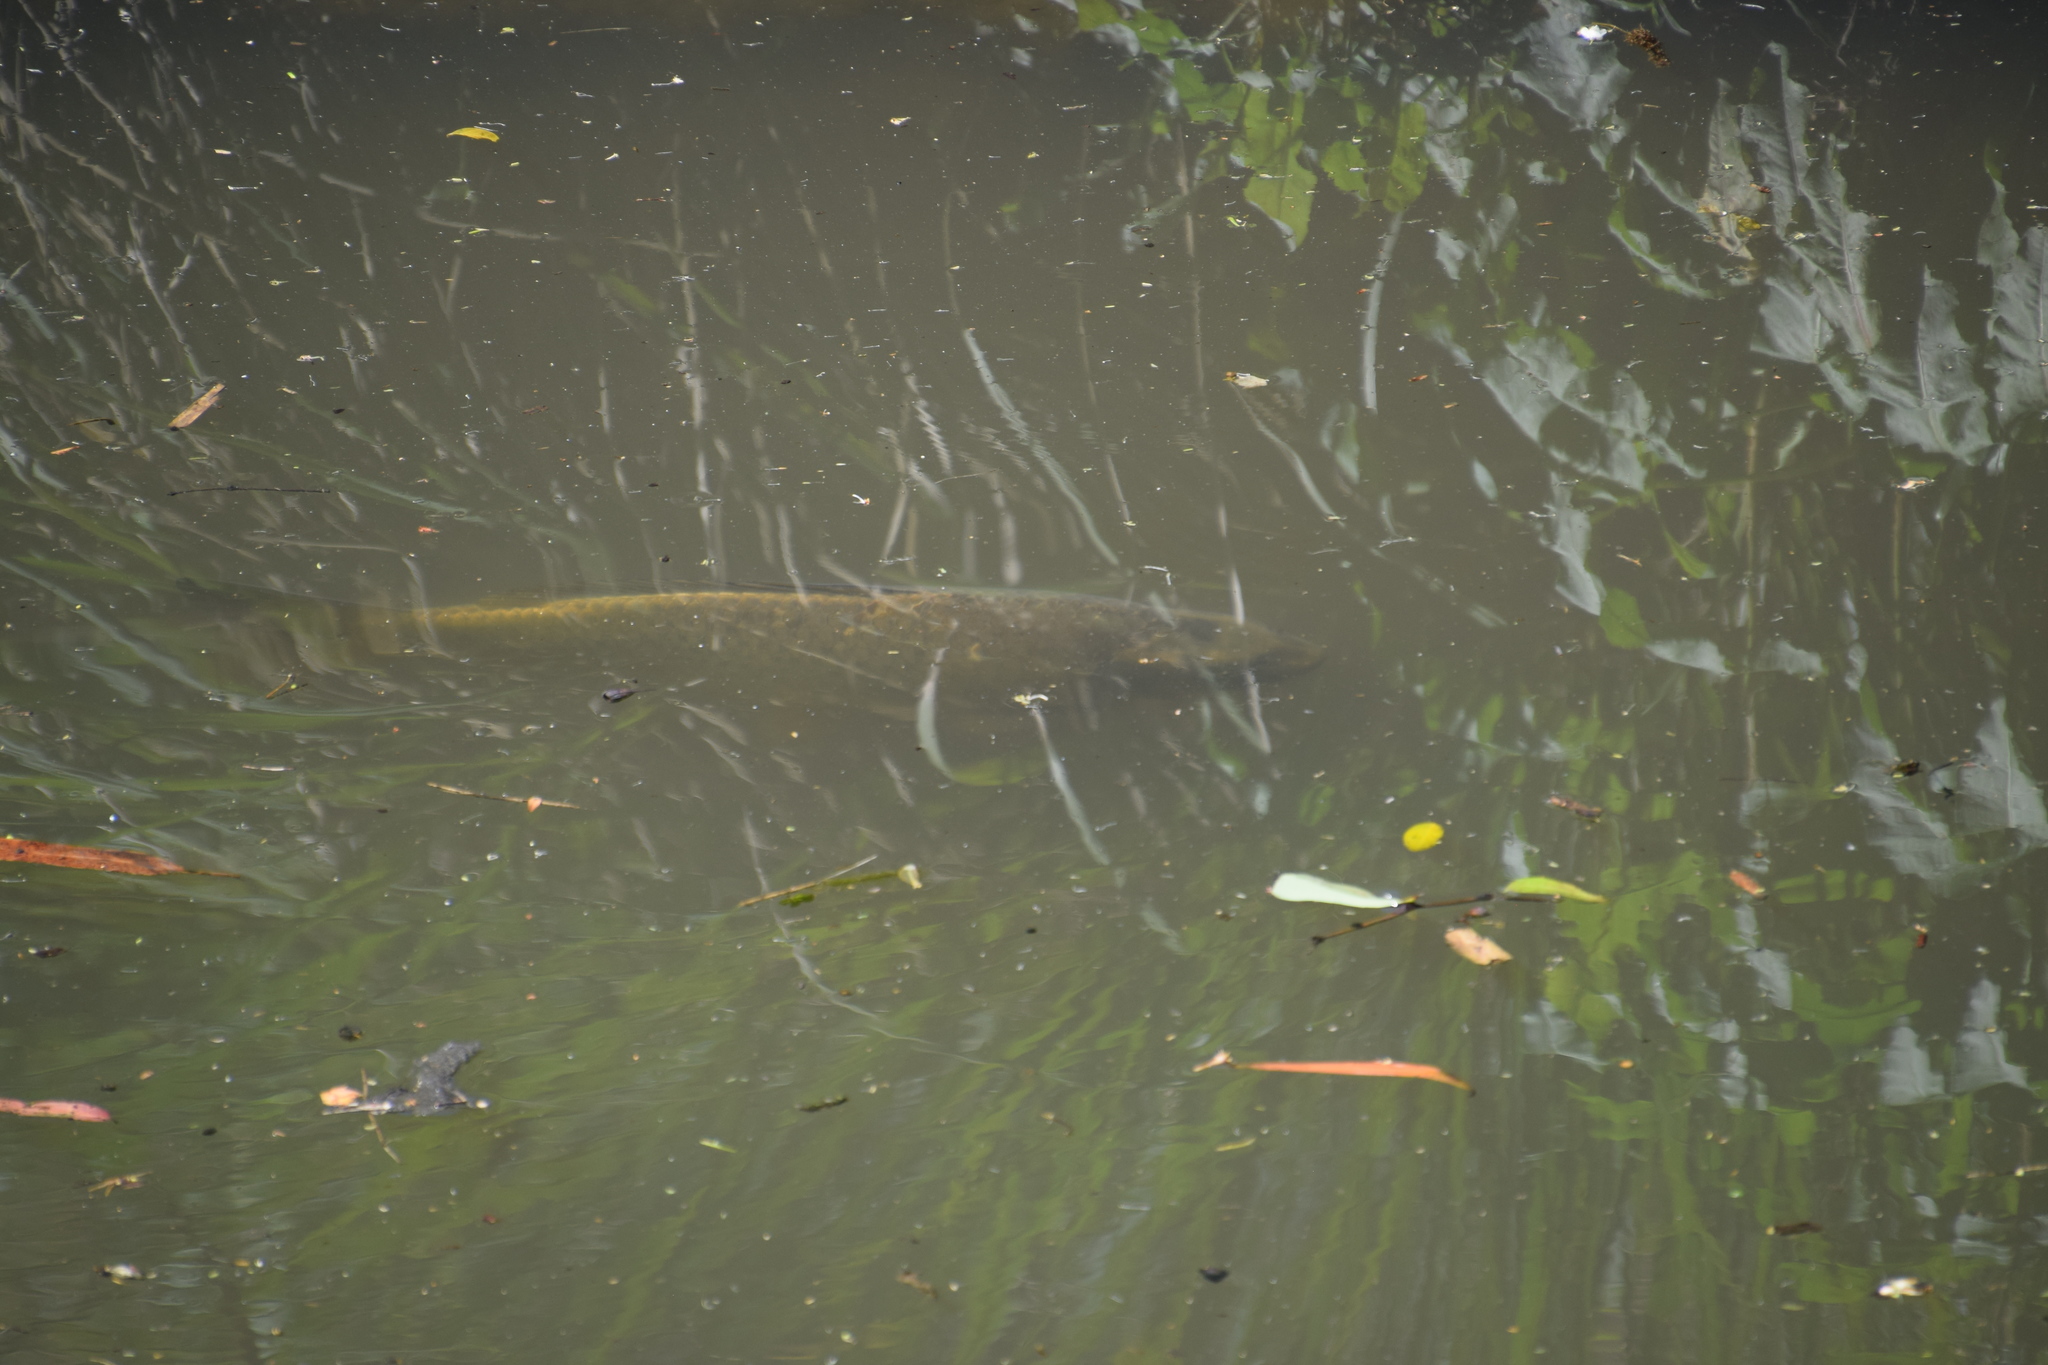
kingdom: Animalia
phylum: Chordata
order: Cypriniformes
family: Cyprinidae
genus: Cyprinus
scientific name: Cyprinus carpio
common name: Common carp
